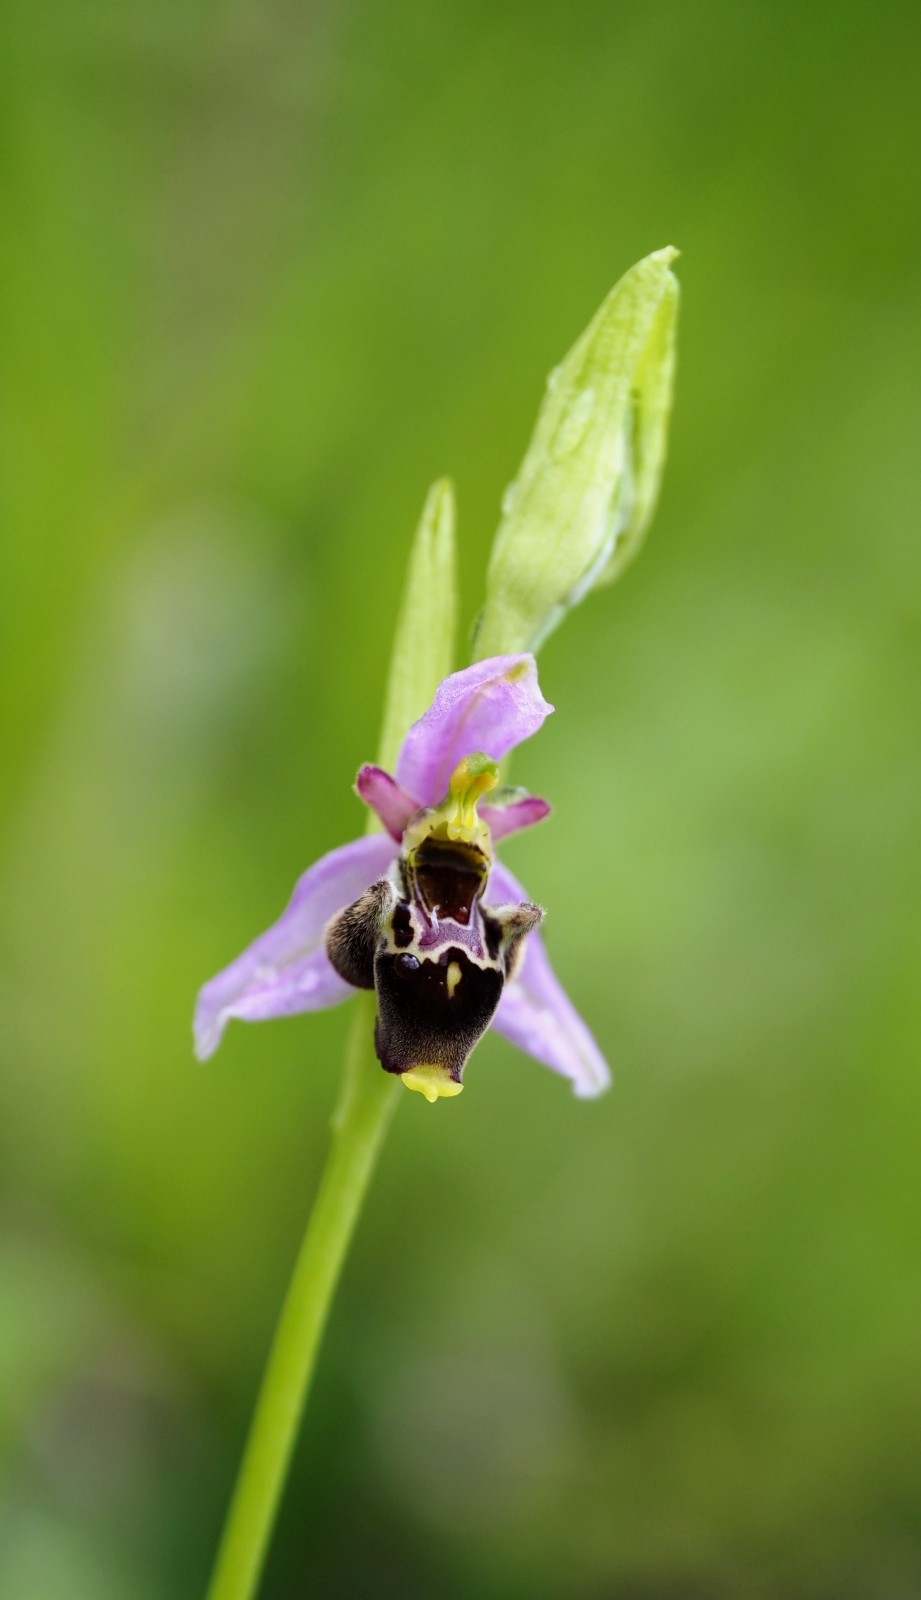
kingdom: Plantae
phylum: Tracheophyta
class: Liliopsida
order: Asparagales
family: Orchidaceae
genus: Ophrys
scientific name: Ophrys holosericea
